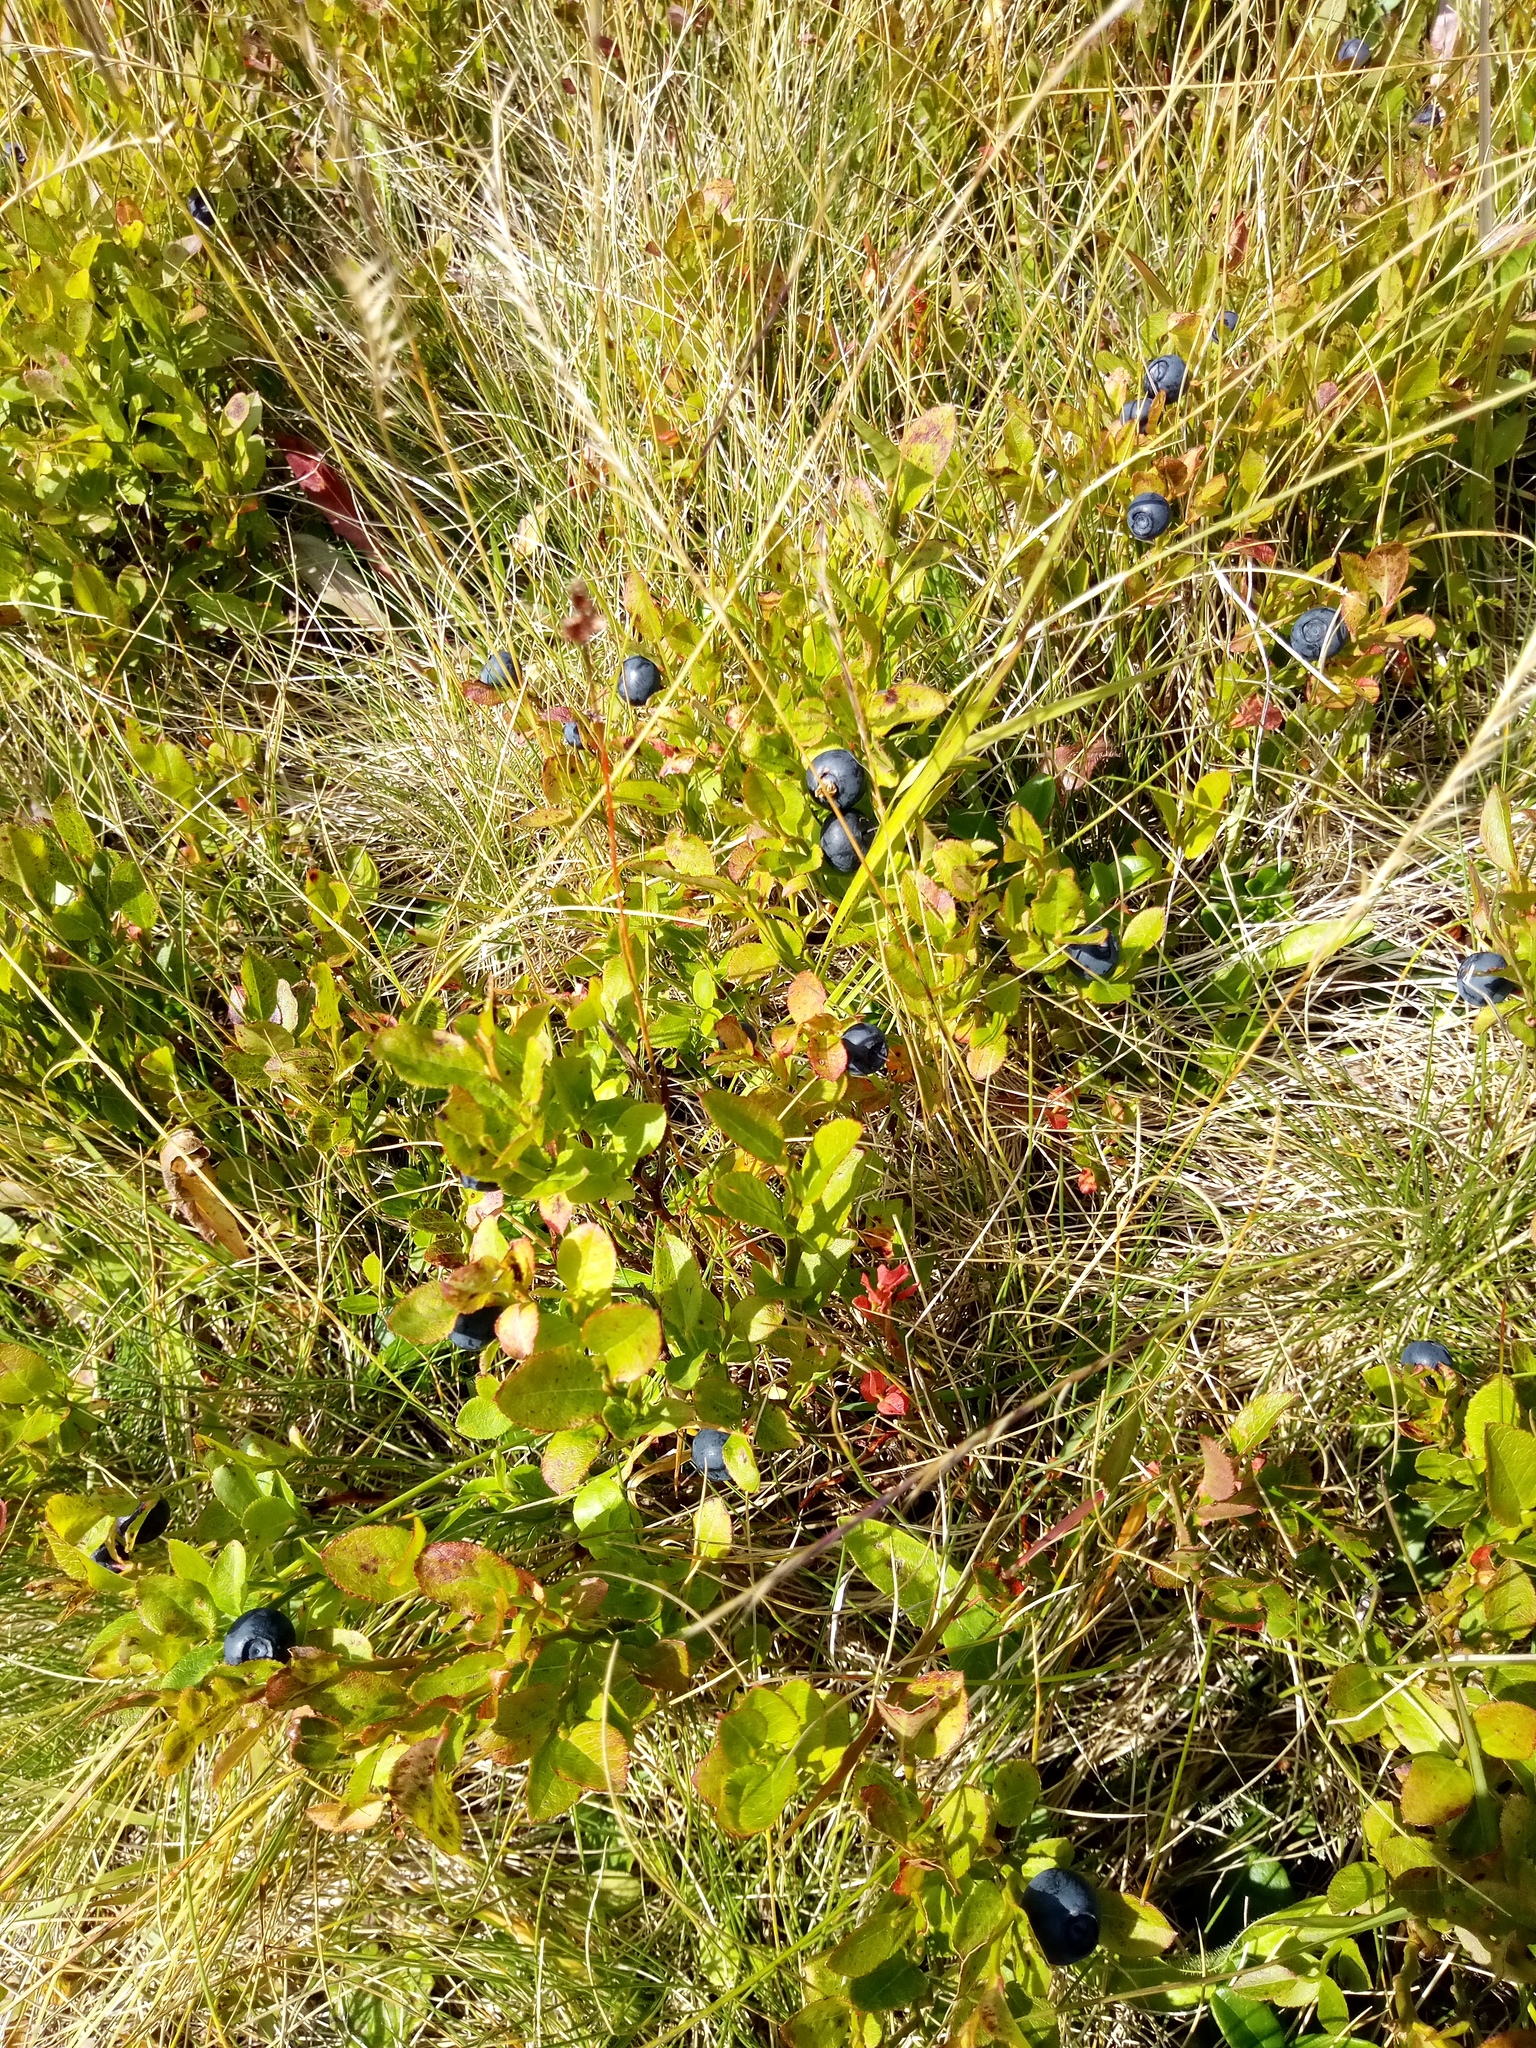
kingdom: Plantae
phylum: Tracheophyta
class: Magnoliopsida
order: Ericales
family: Ericaceae
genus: Vaccinium
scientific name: Vaccinium myrtillus
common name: Bilberry
